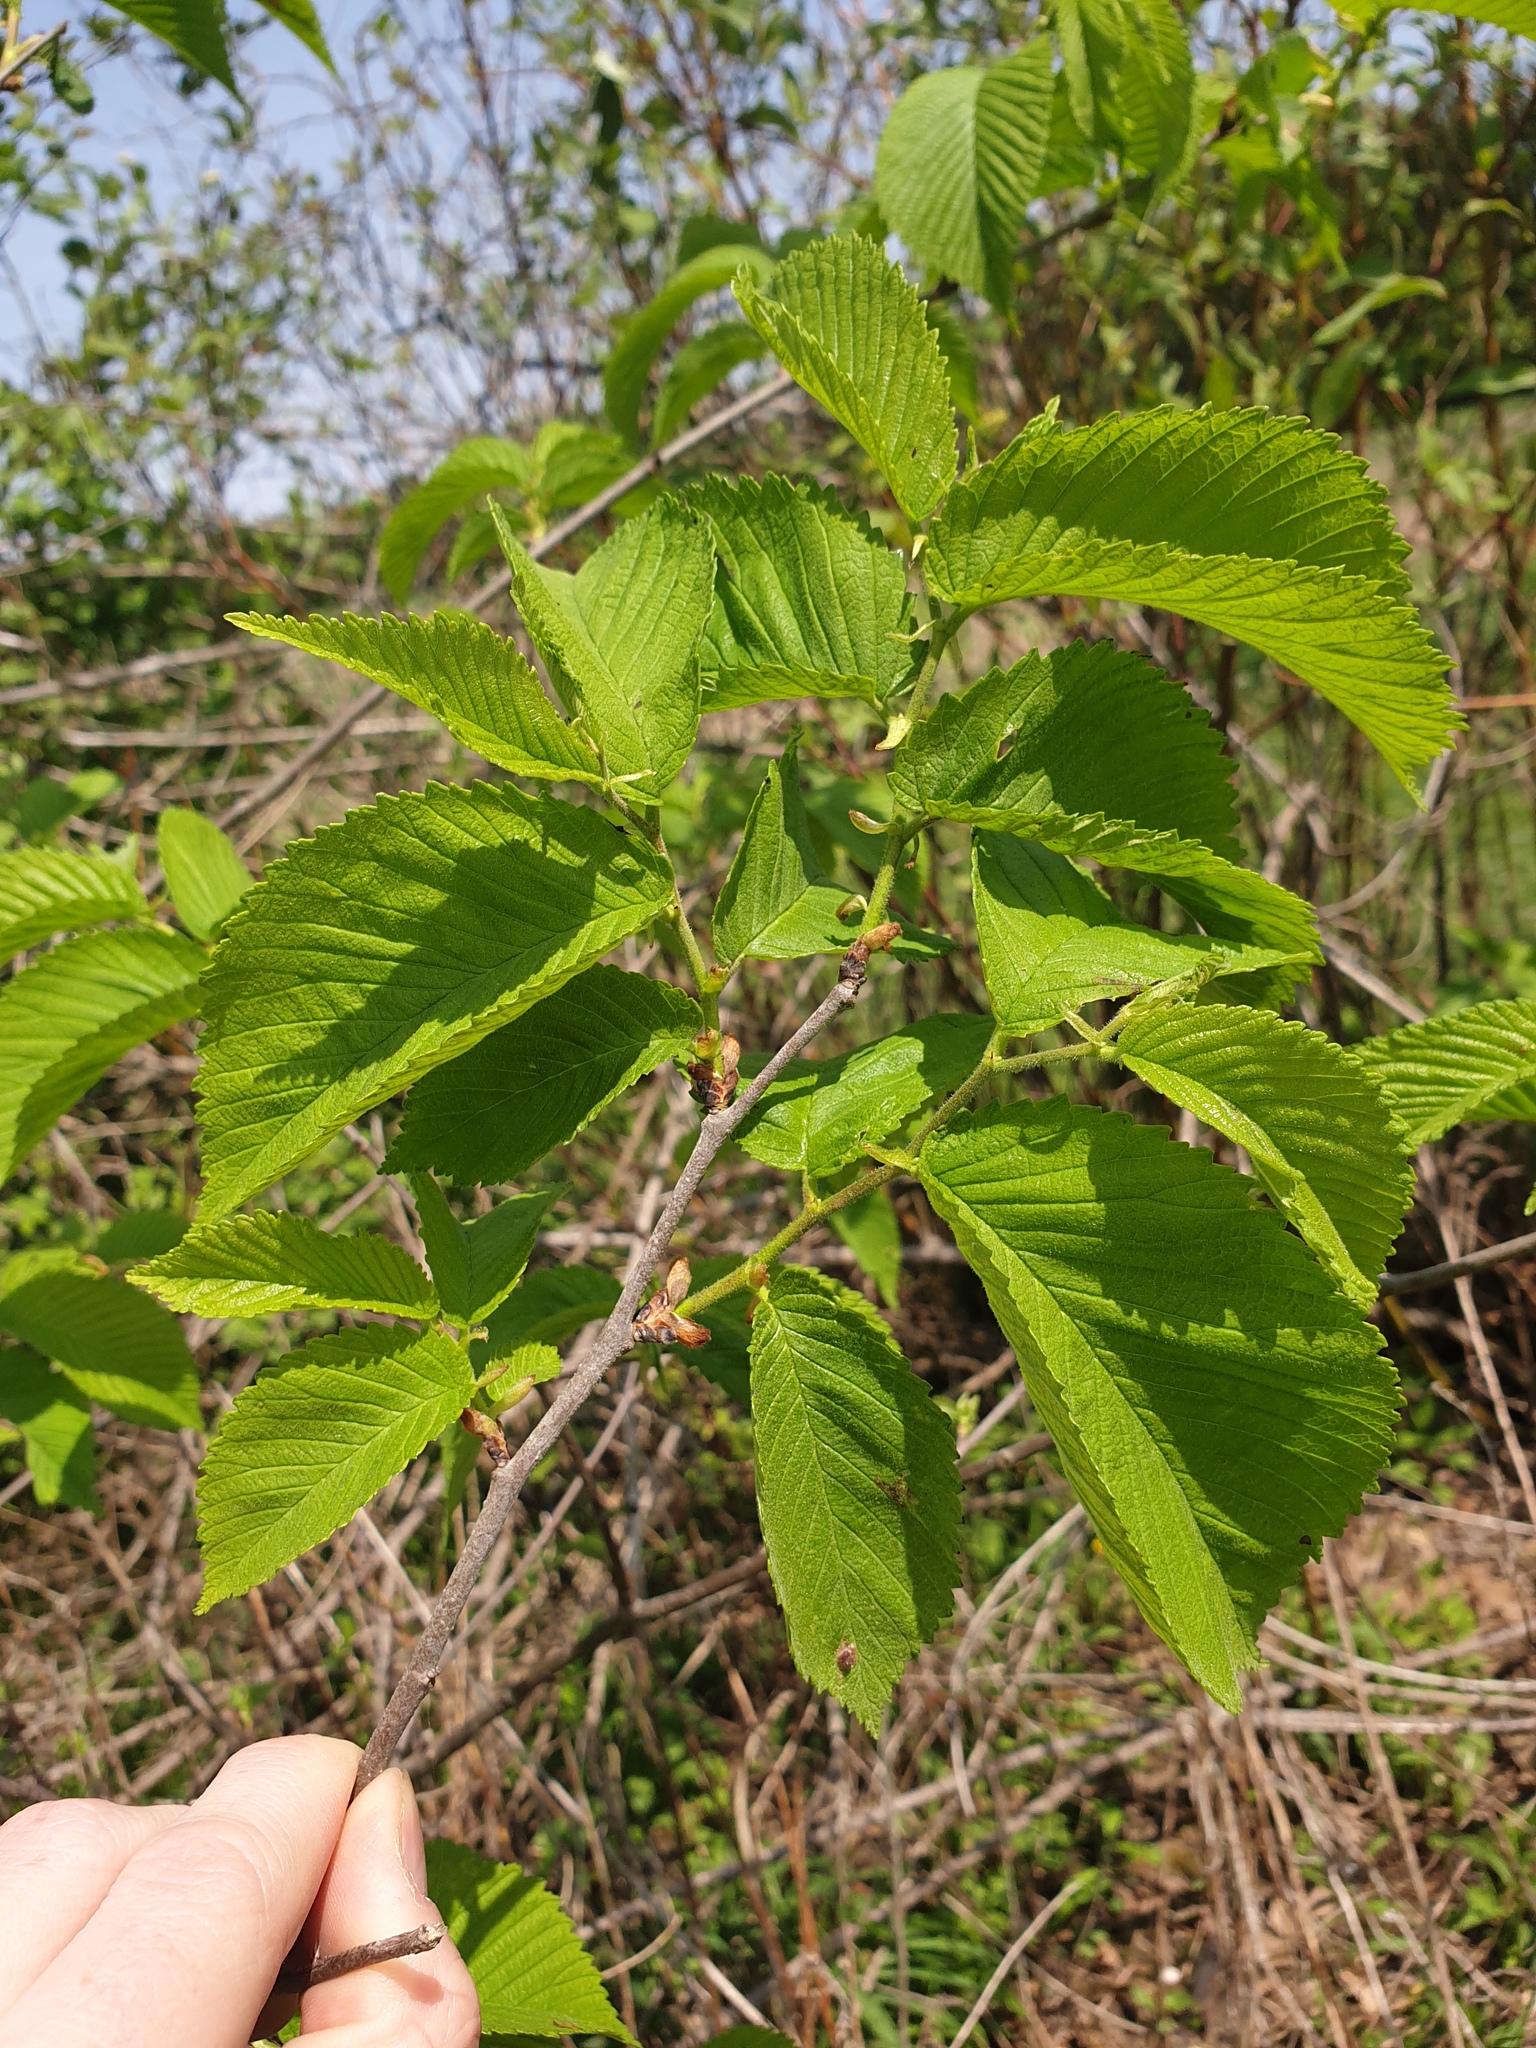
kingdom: Plantae
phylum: Tracheophyta
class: Magnoliopsida
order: Rosales
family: Ulmaceae
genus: Ulmus
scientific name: Ulmus rubra
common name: Slippery elm
